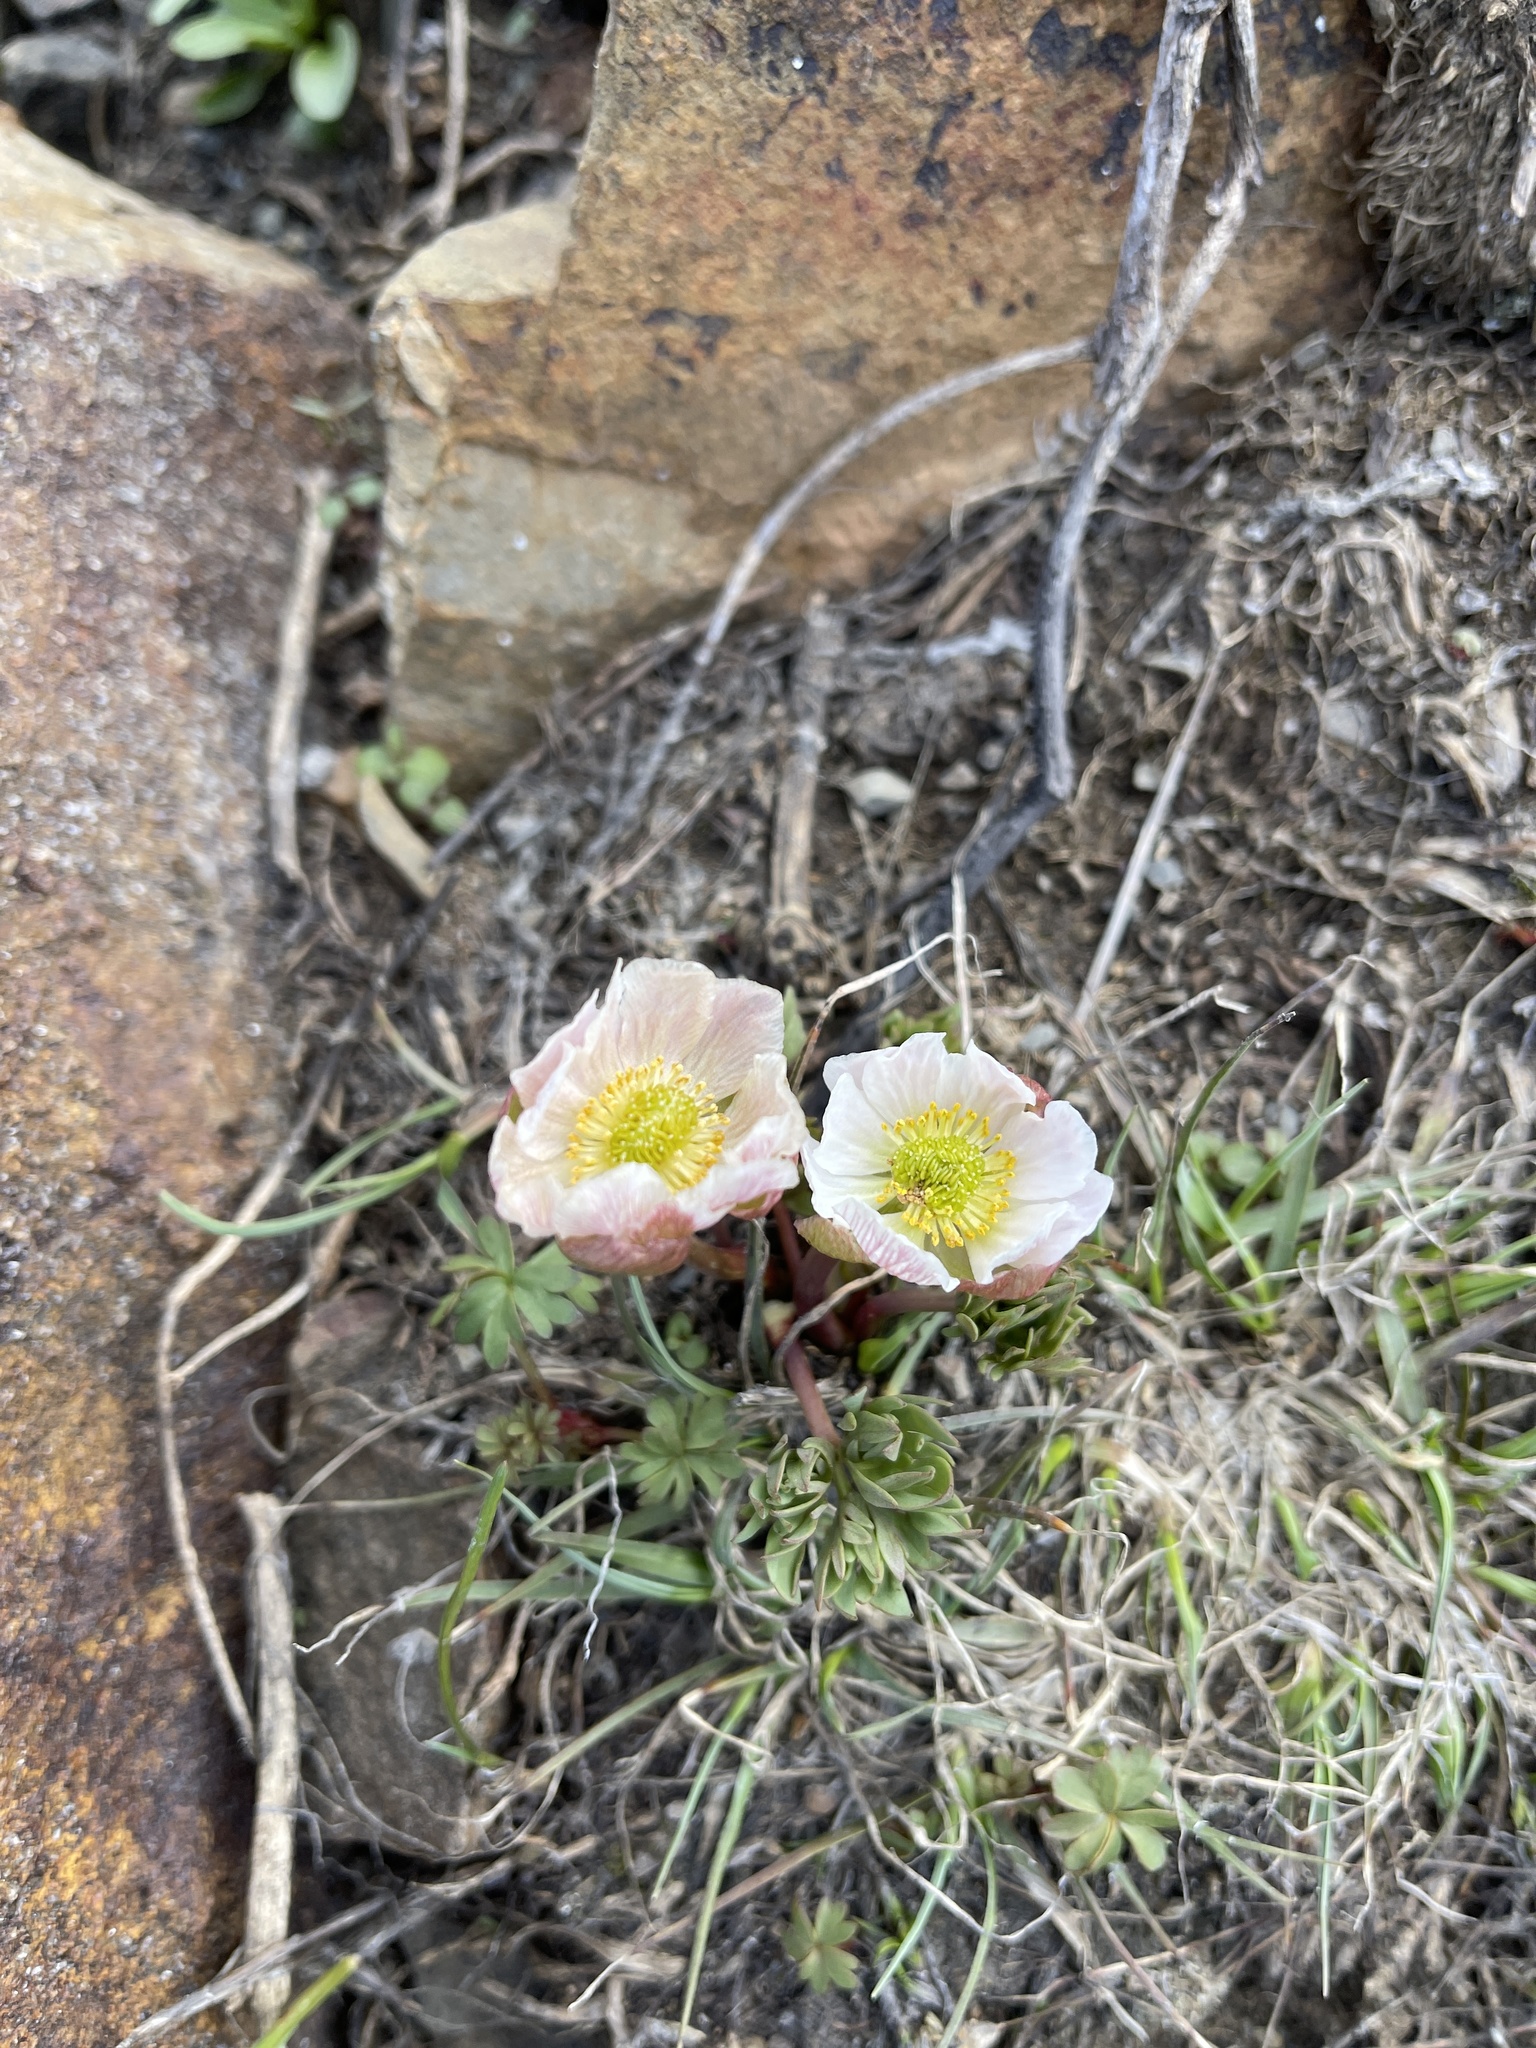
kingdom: Plantae
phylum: Tracheophyta
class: Magnoliopsida
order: Ranunculales
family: Ranunculaceae
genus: Beckwithia
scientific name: Beckwithia andersonii
